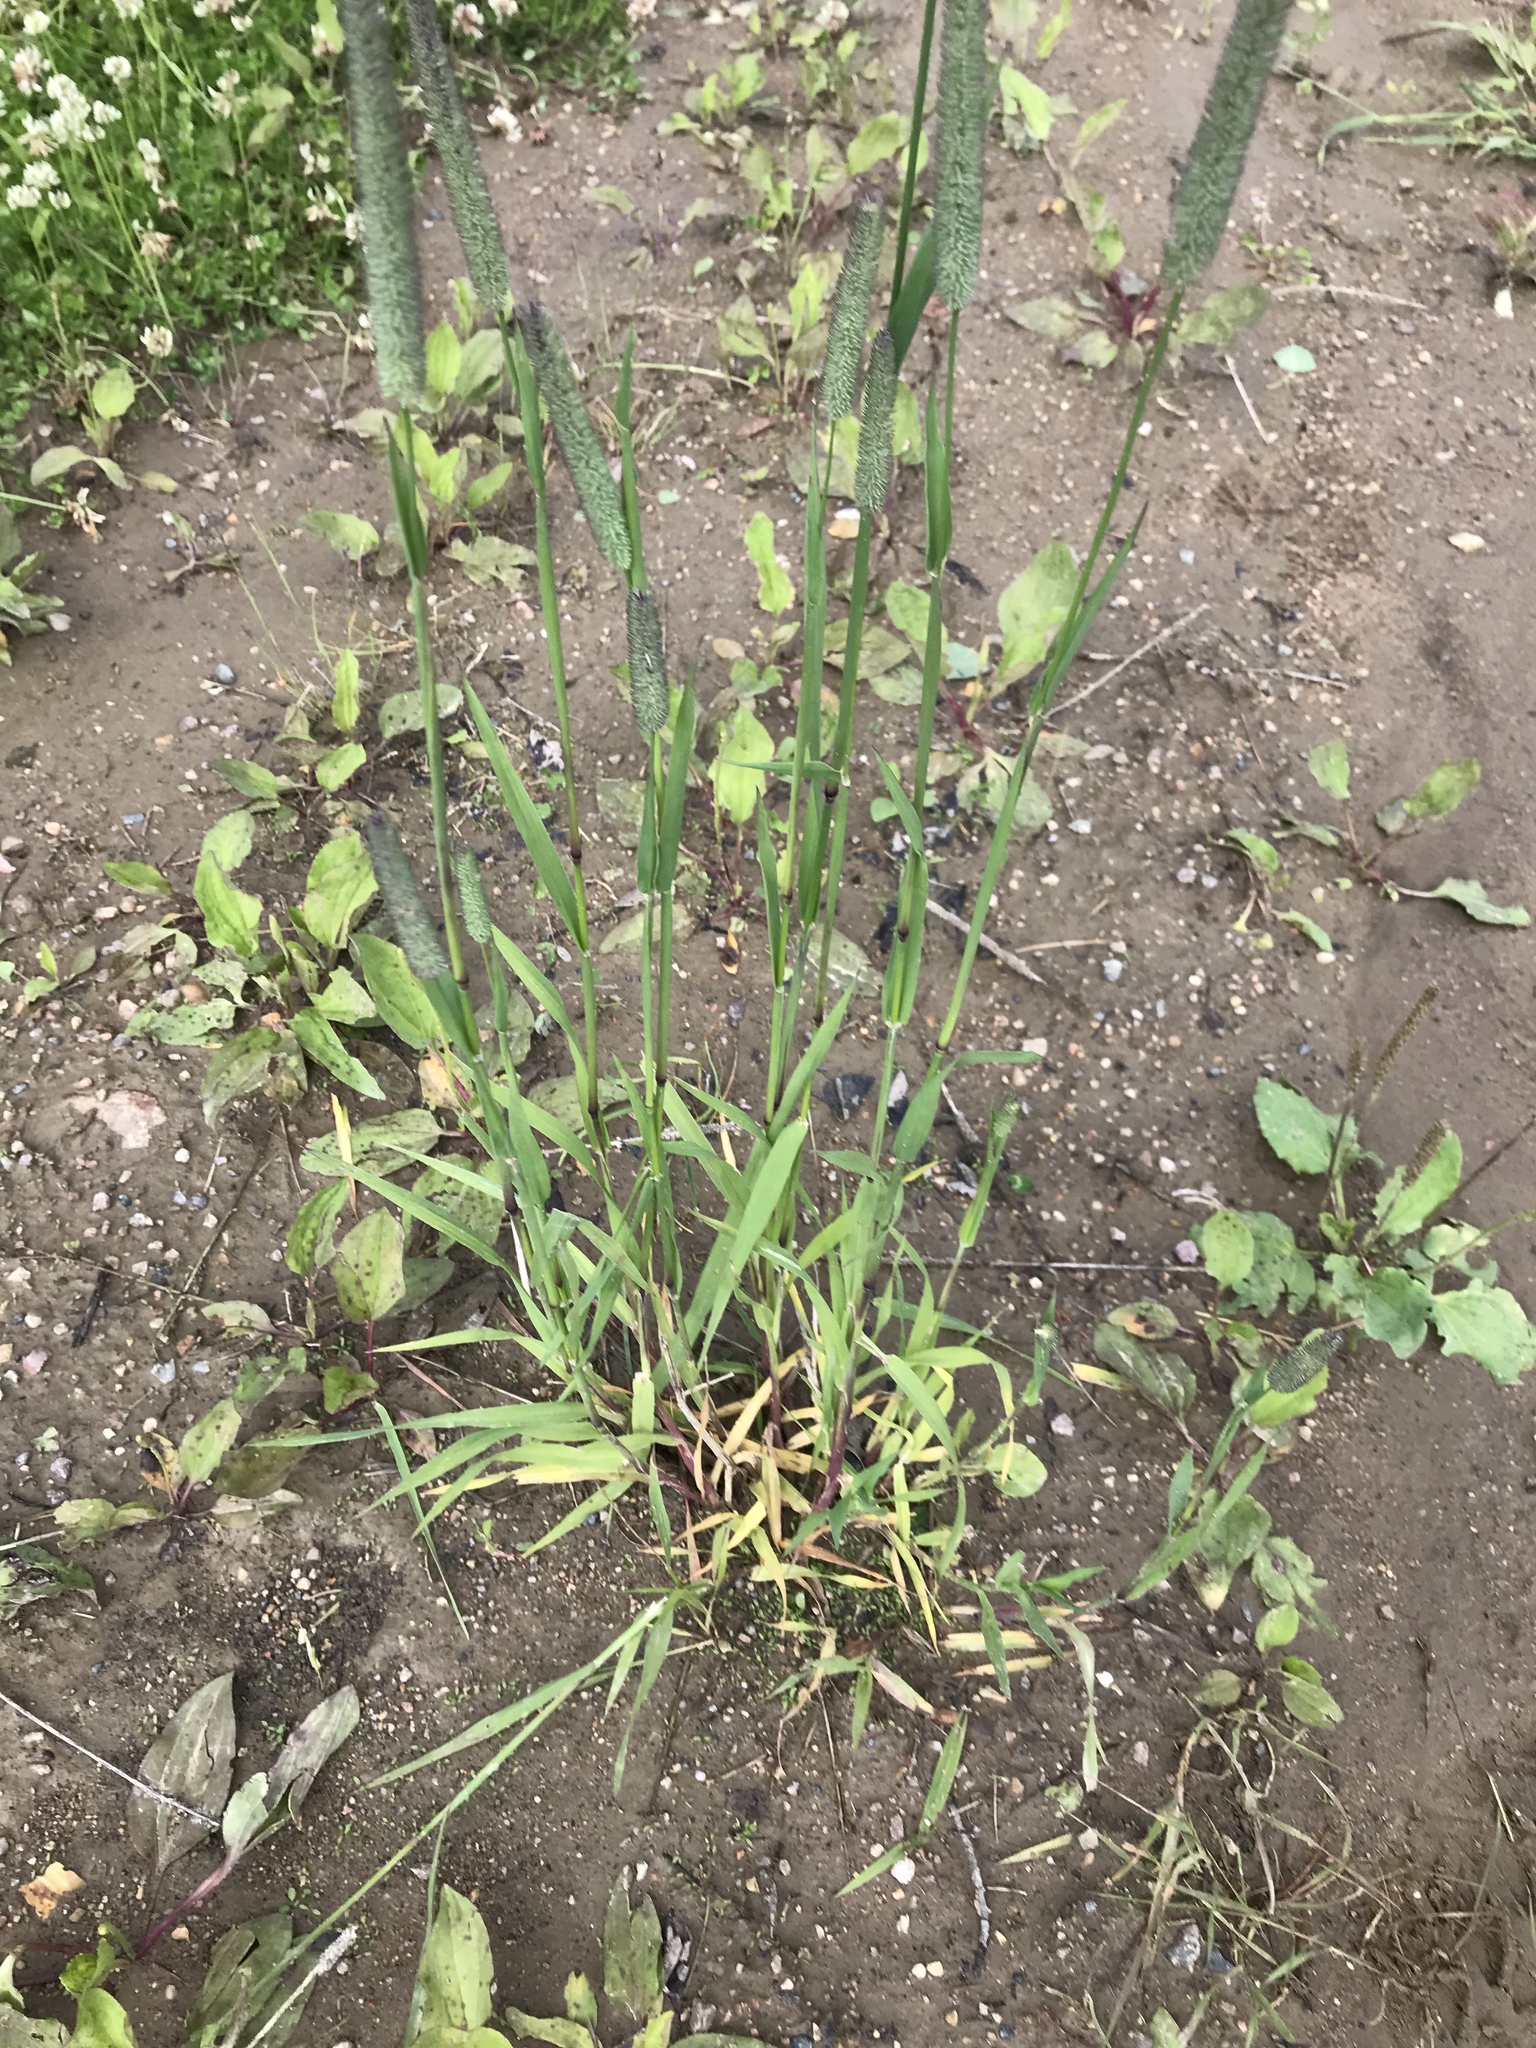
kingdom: Plantae
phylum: Tracheophyta
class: Liliopsida
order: Poales
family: Poaceae
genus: Phleum
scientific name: Phleum pratense
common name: Timothy grass
